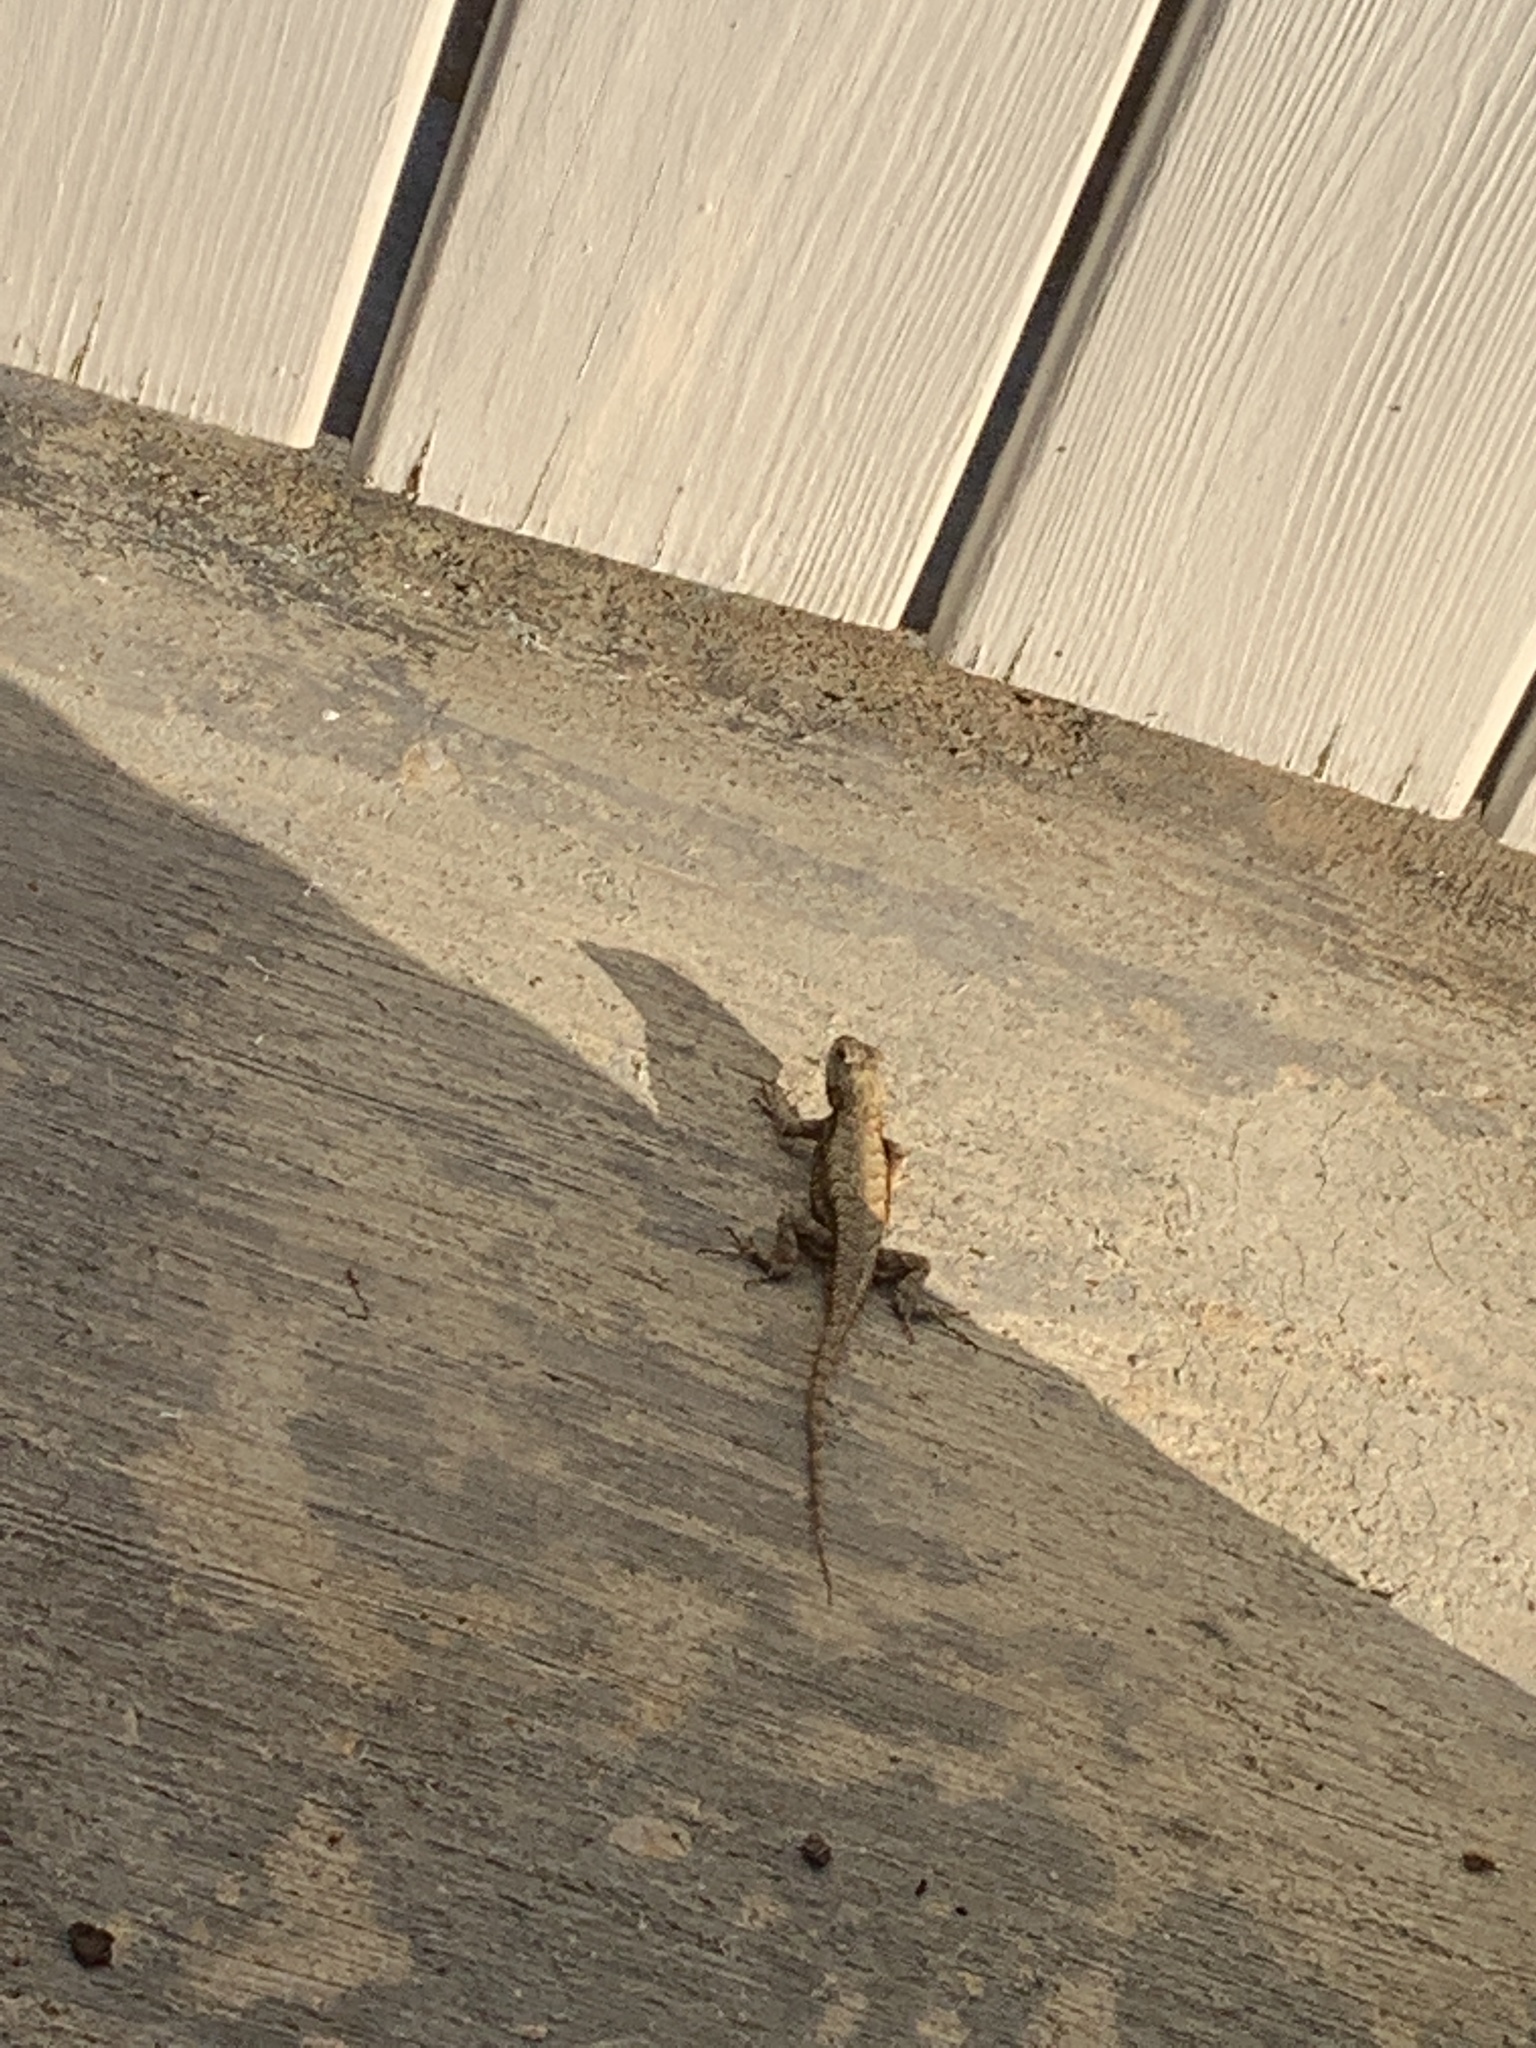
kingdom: Animalia
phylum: Chordata
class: Squamata
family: Phrynosomatidae
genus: Sceloporus
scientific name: Sceloporus undulatus
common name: Eastern fence lizard
